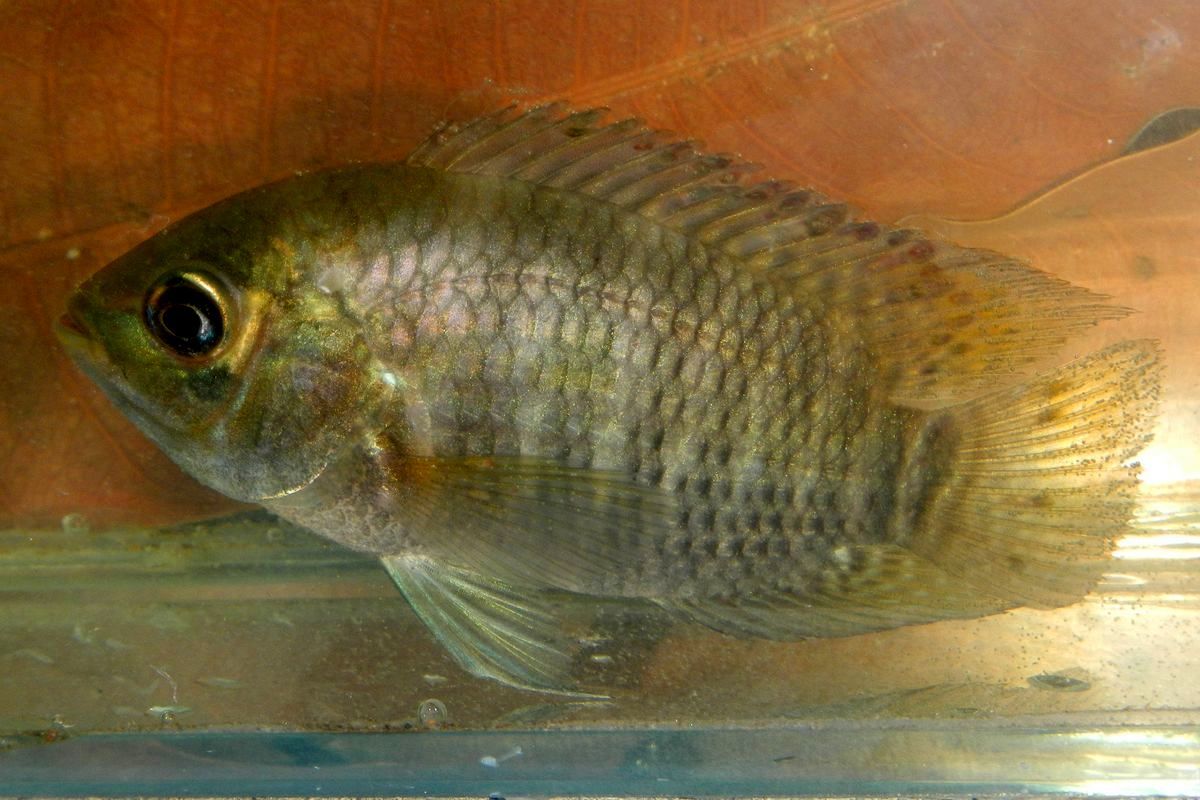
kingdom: Animalia
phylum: Chordata
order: Perciformes
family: Cichlidae
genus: Cichlasoma
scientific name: Cichlasoma bimaculatum
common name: Black acara
